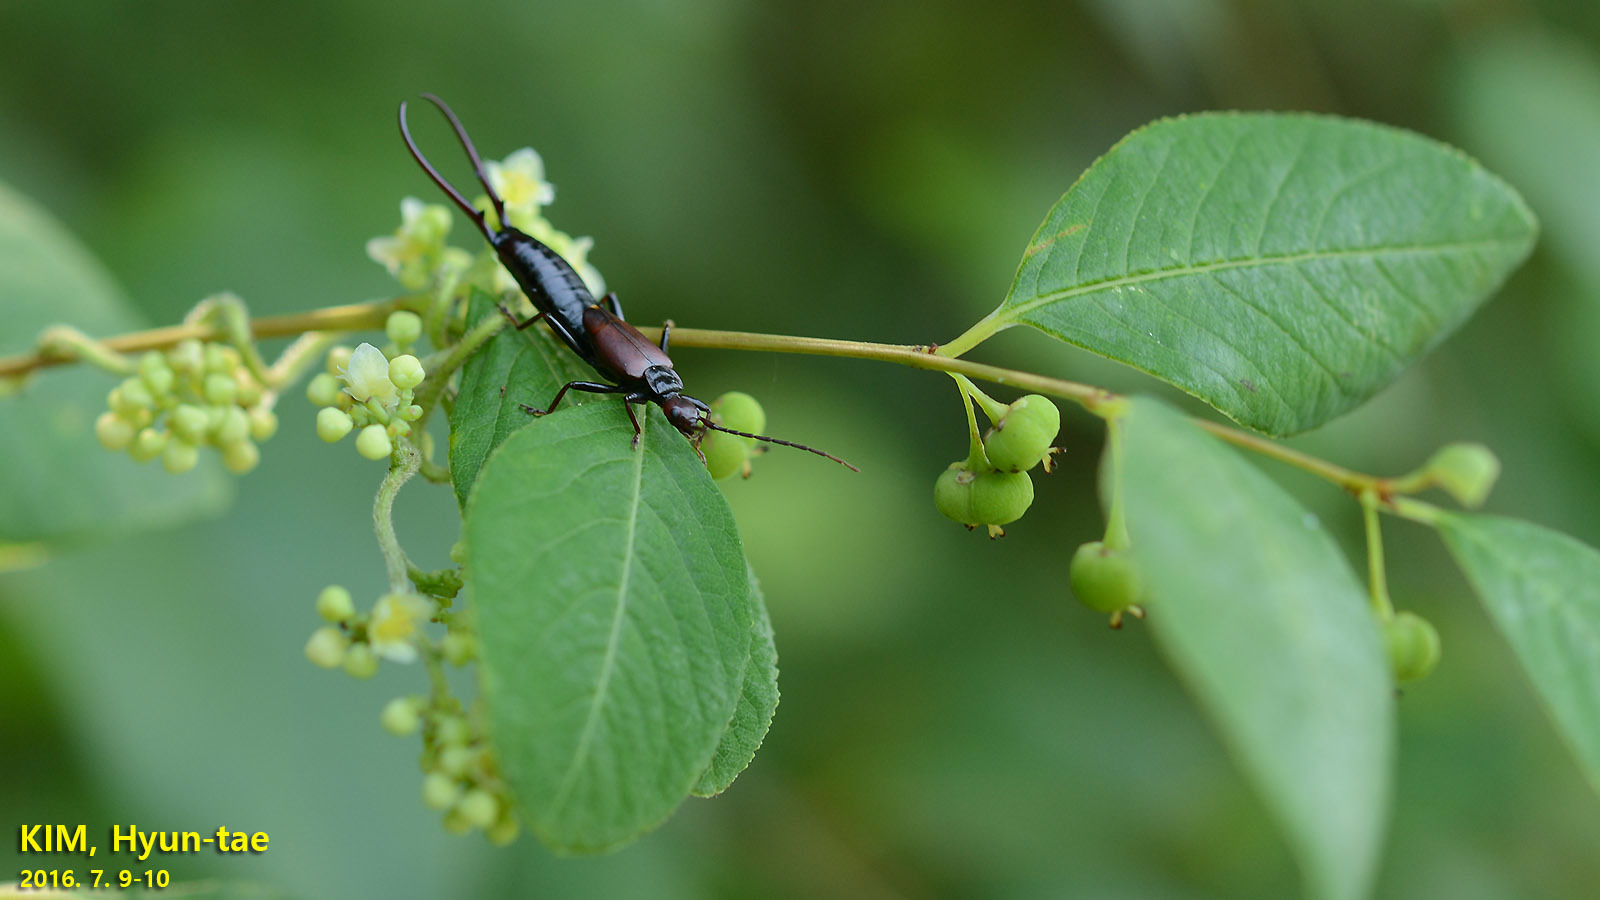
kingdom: Animalia
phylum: Arthropoda
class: Insecta
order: Dermaptera
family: Forficulidae
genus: Timomenus
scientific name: Timomenus komarovi
